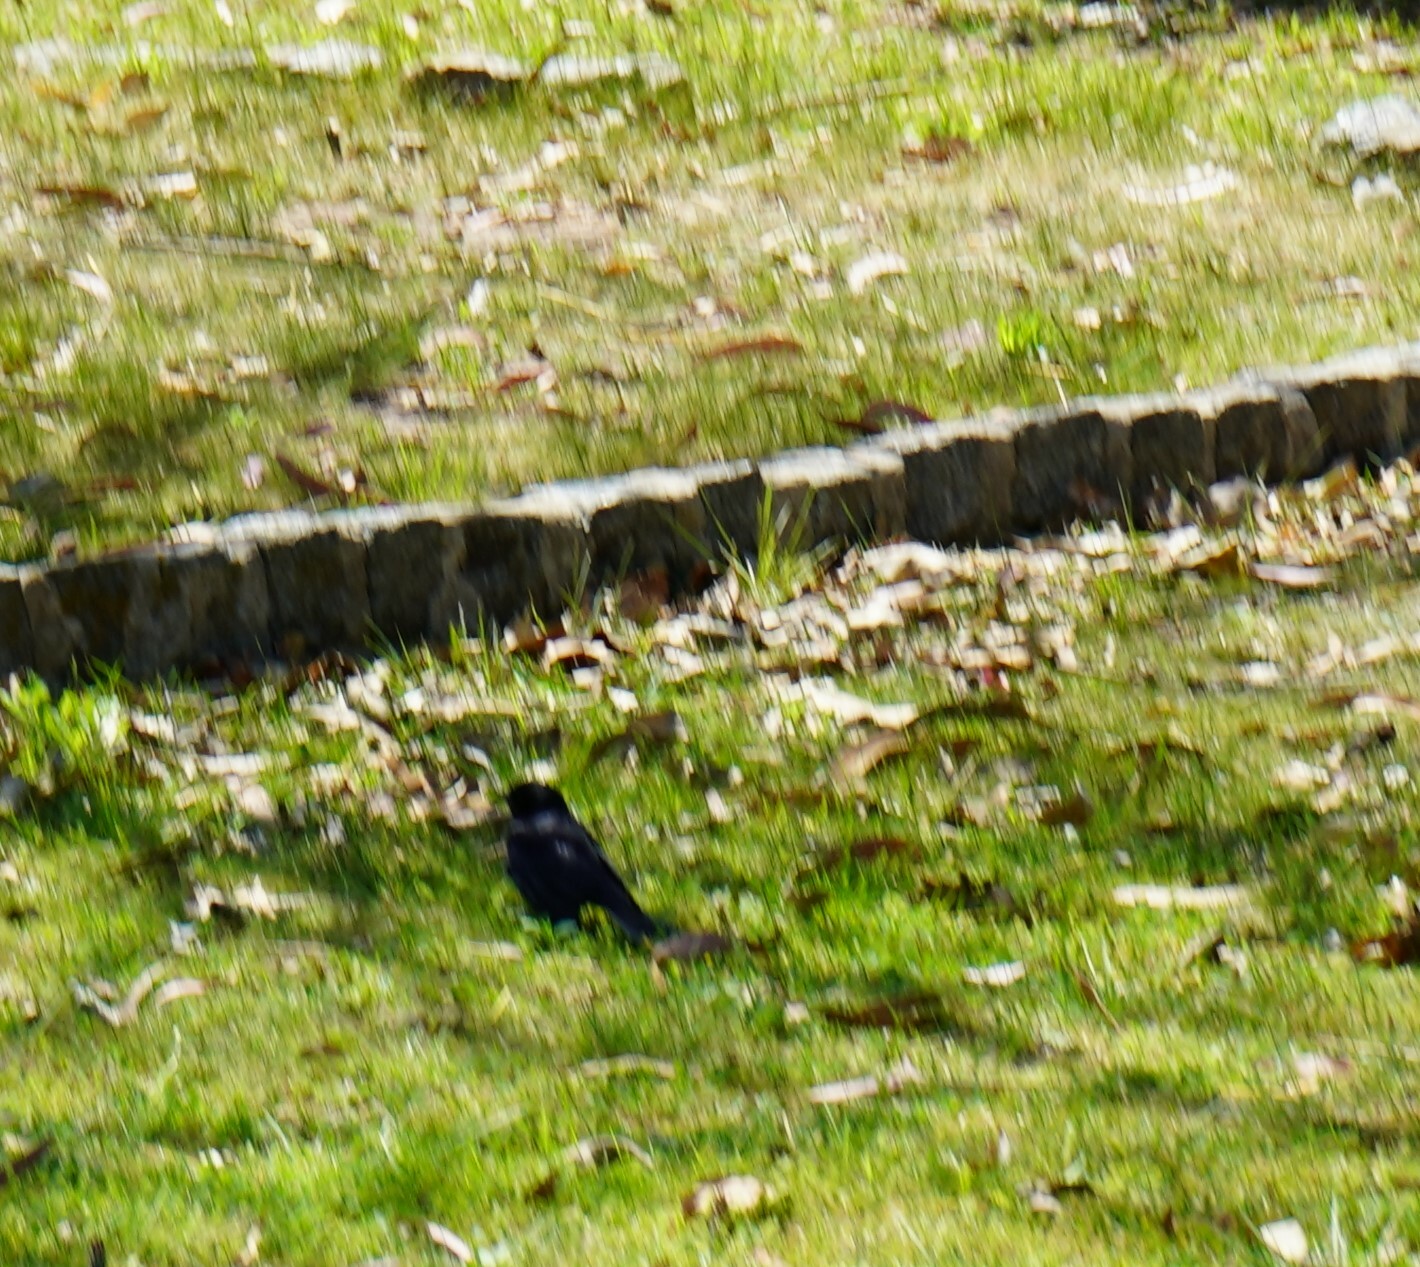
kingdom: Animalia
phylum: Chordata
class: Aves
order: Passeriformes
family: Icteridae
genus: Molothrus
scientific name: Molothrus bonariensis
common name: Shiny cowbird
